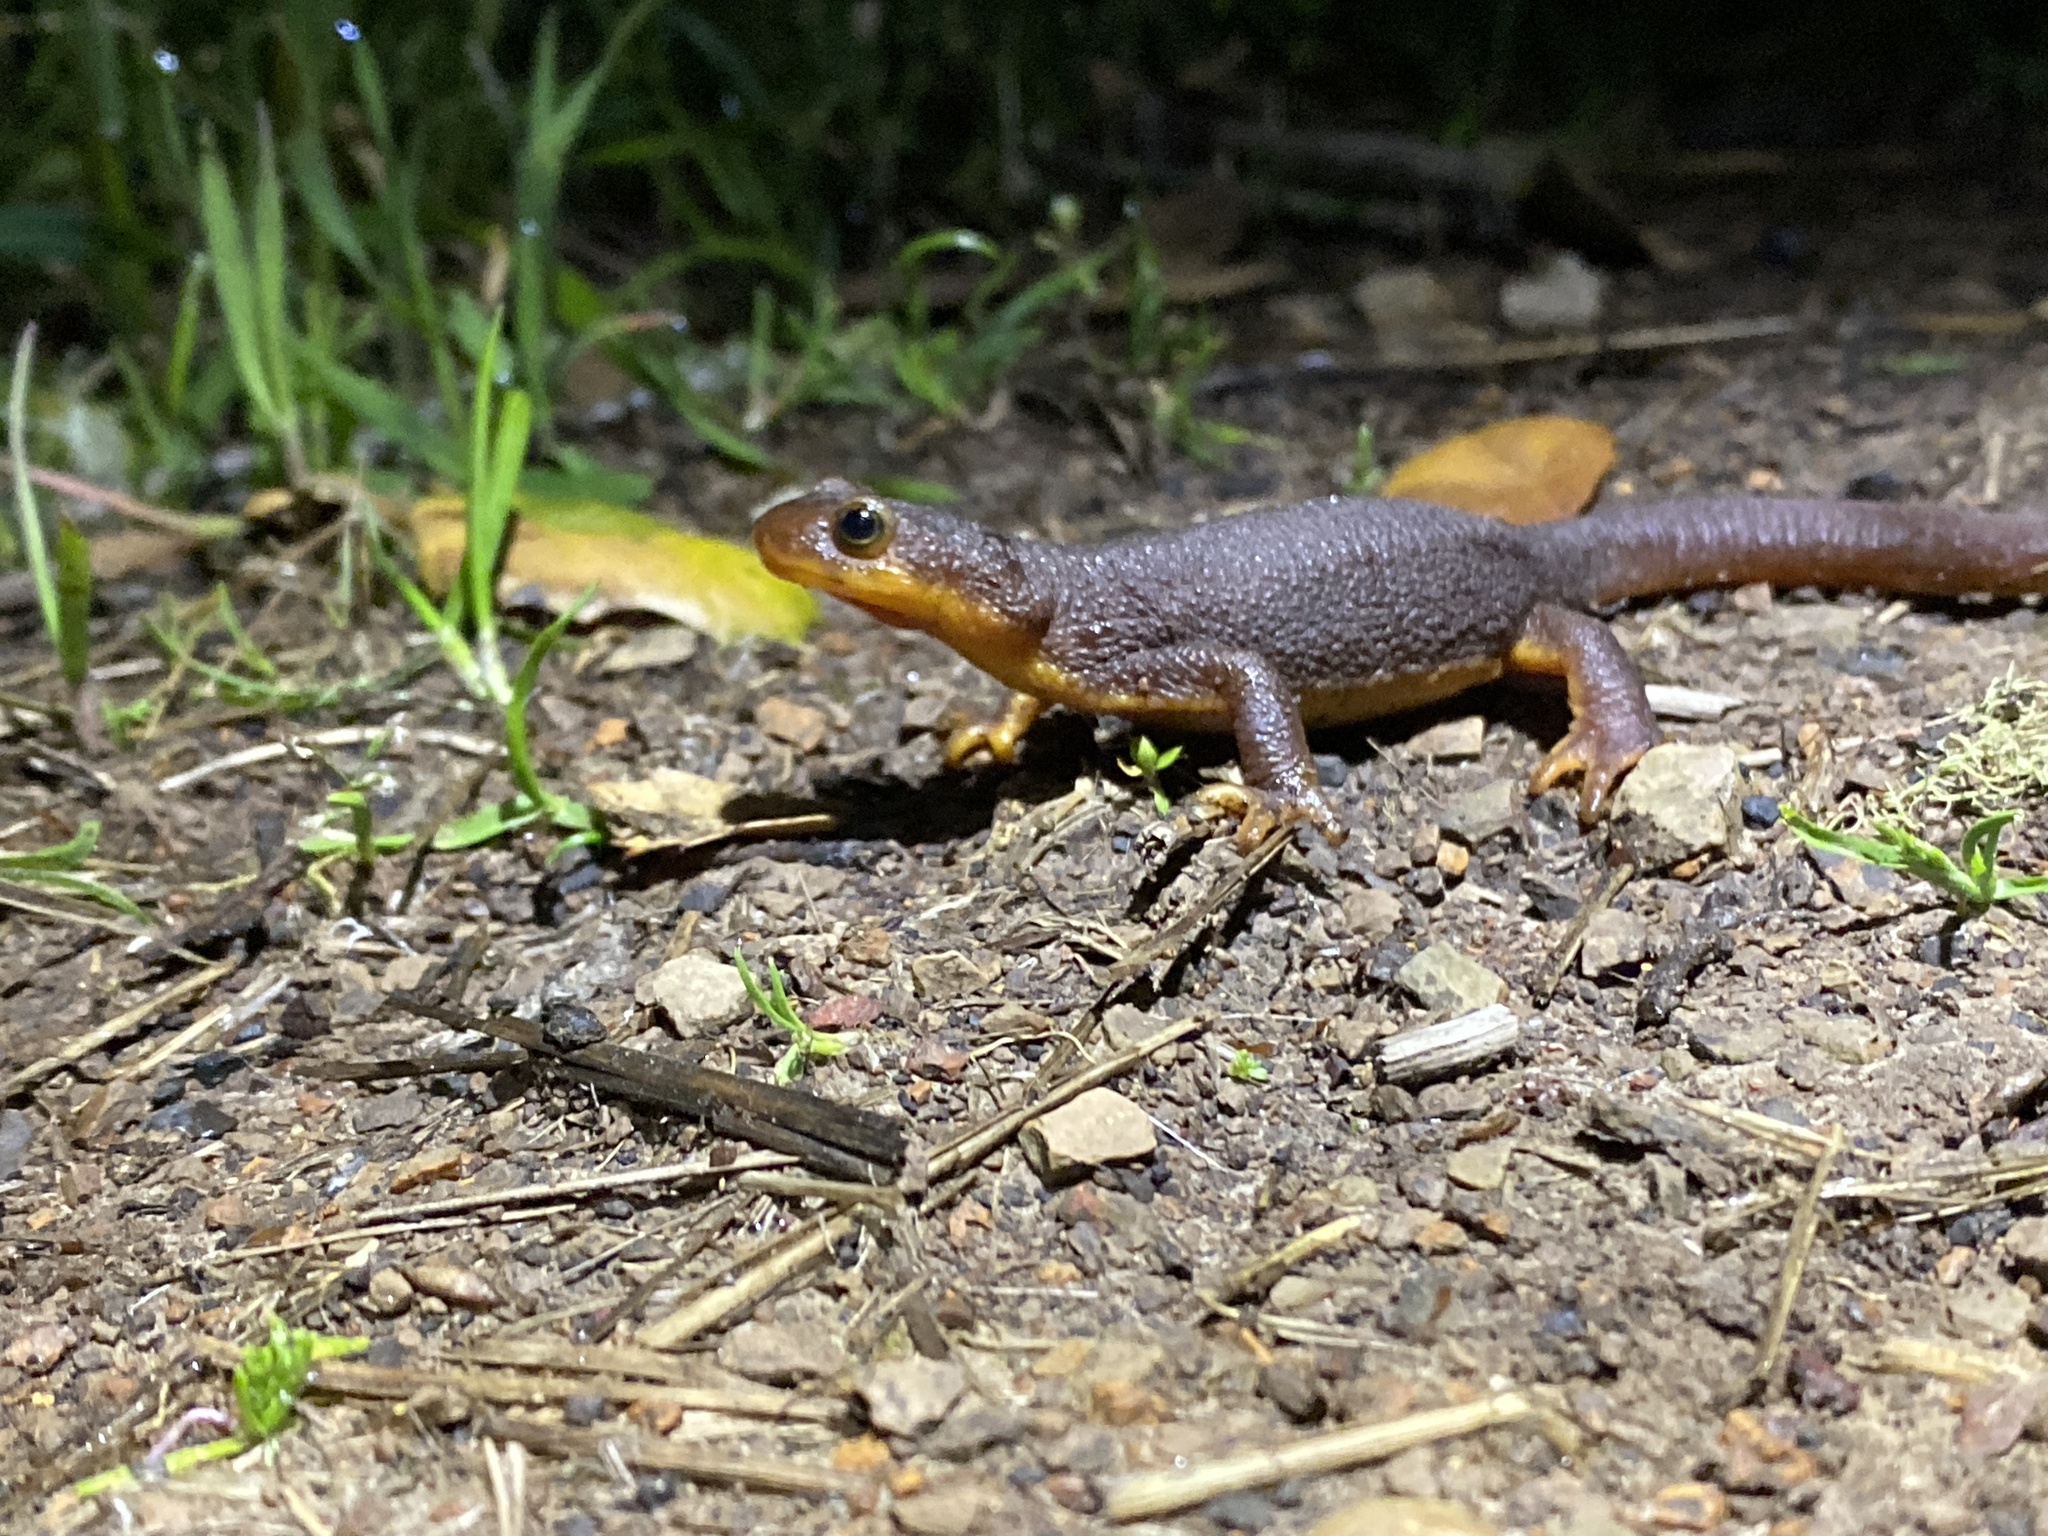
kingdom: Animalia
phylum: Chordata
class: Amphibia
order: Caudata
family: Salamandridae
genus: Taricha
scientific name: Taricha torosa
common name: California newt
